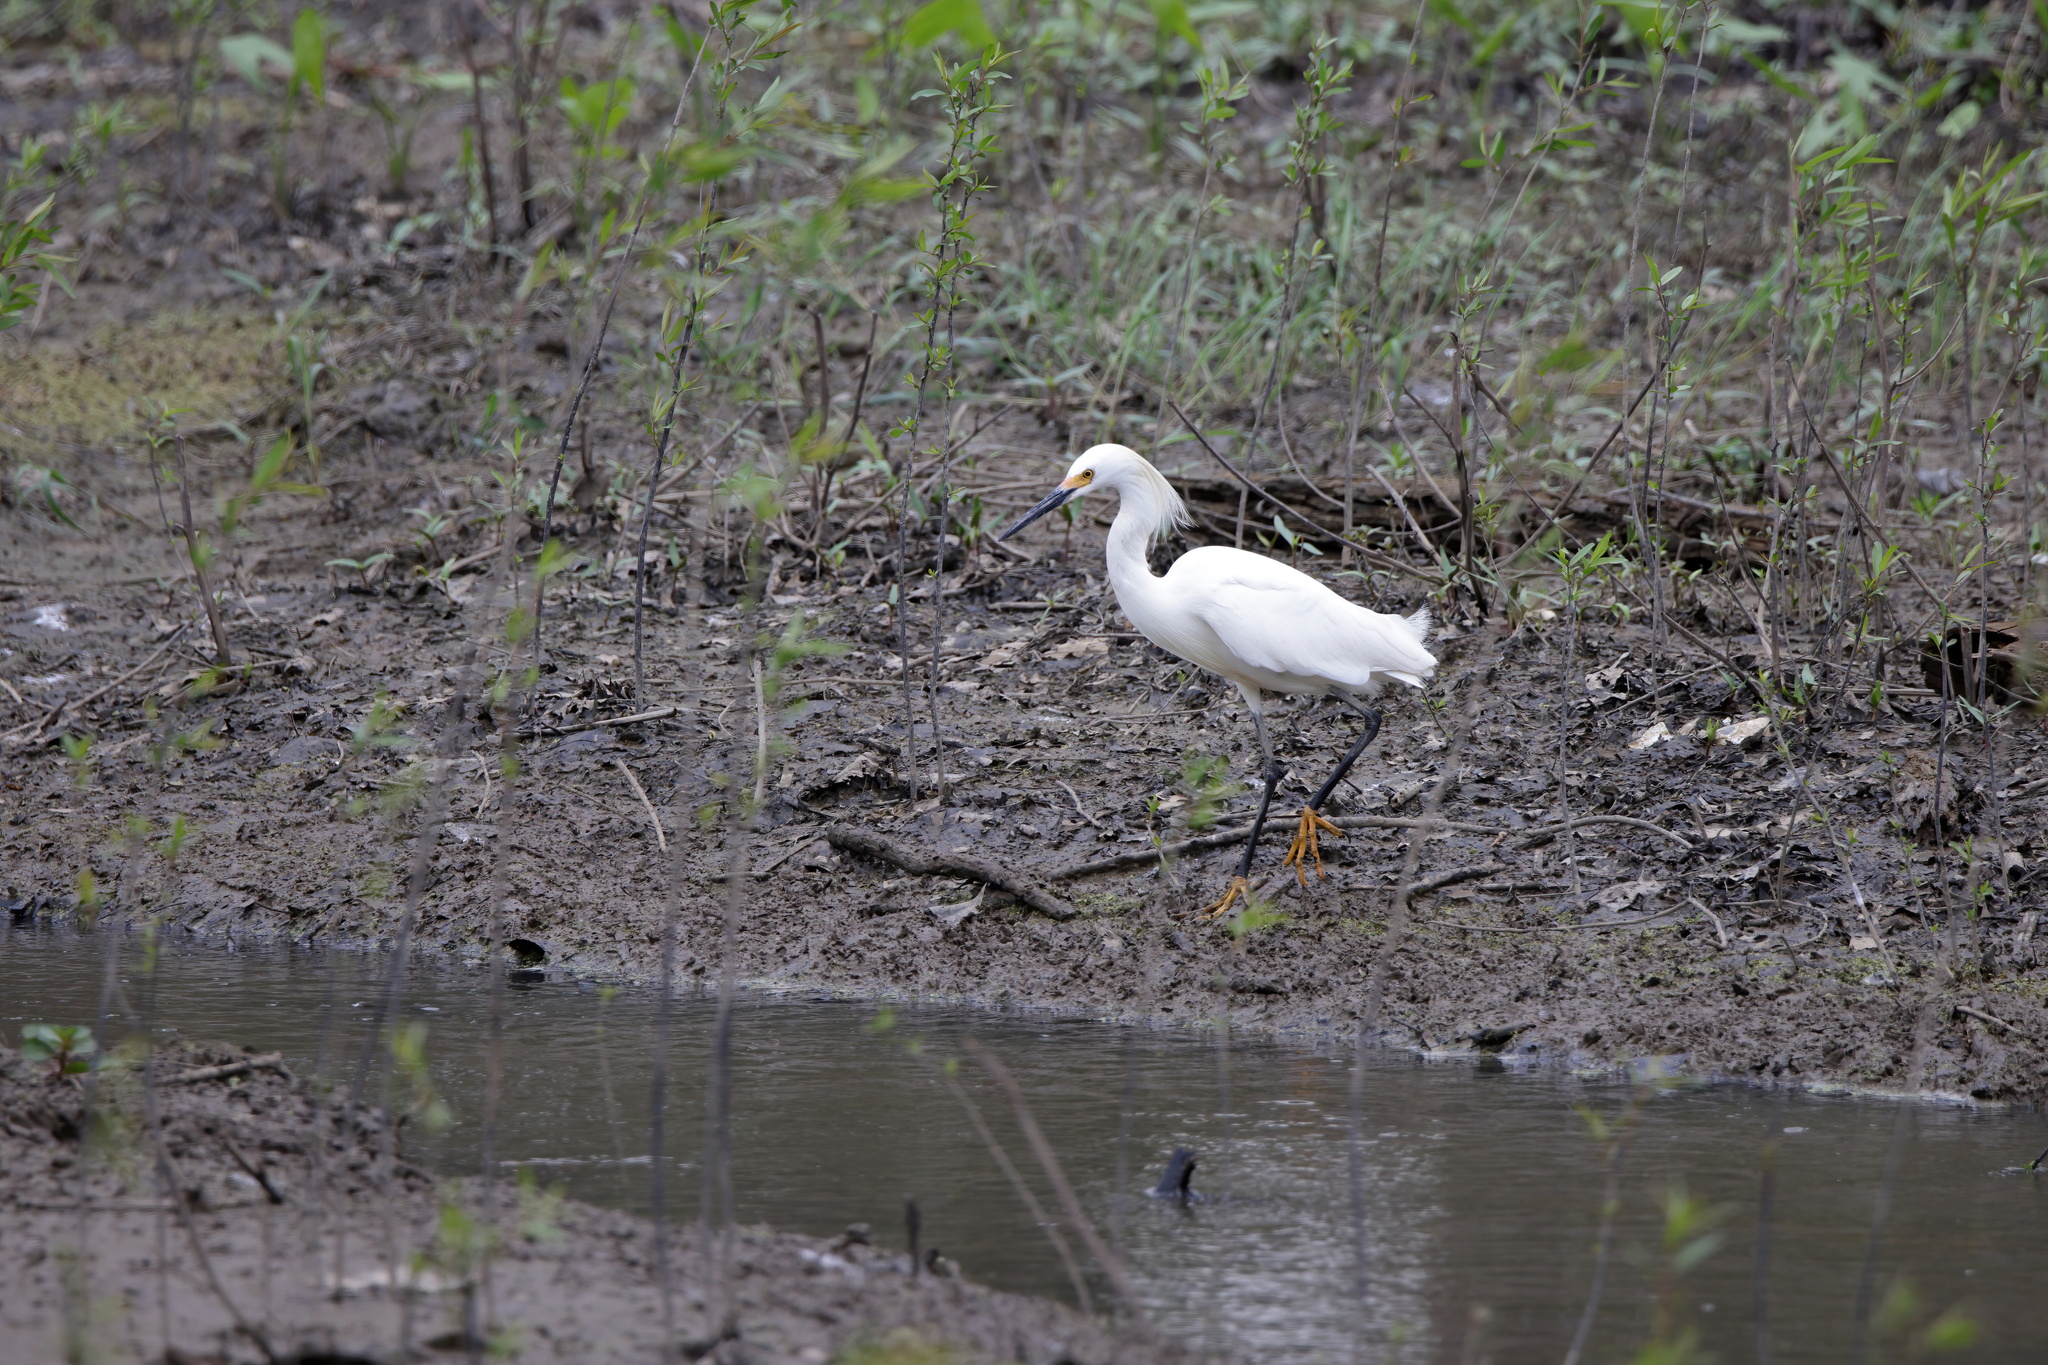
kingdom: Animalia
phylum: Chordata
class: Aves
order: Pelecaniformes
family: Ardeidae
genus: Egretta
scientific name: Egretta thula
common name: Snowy egret
